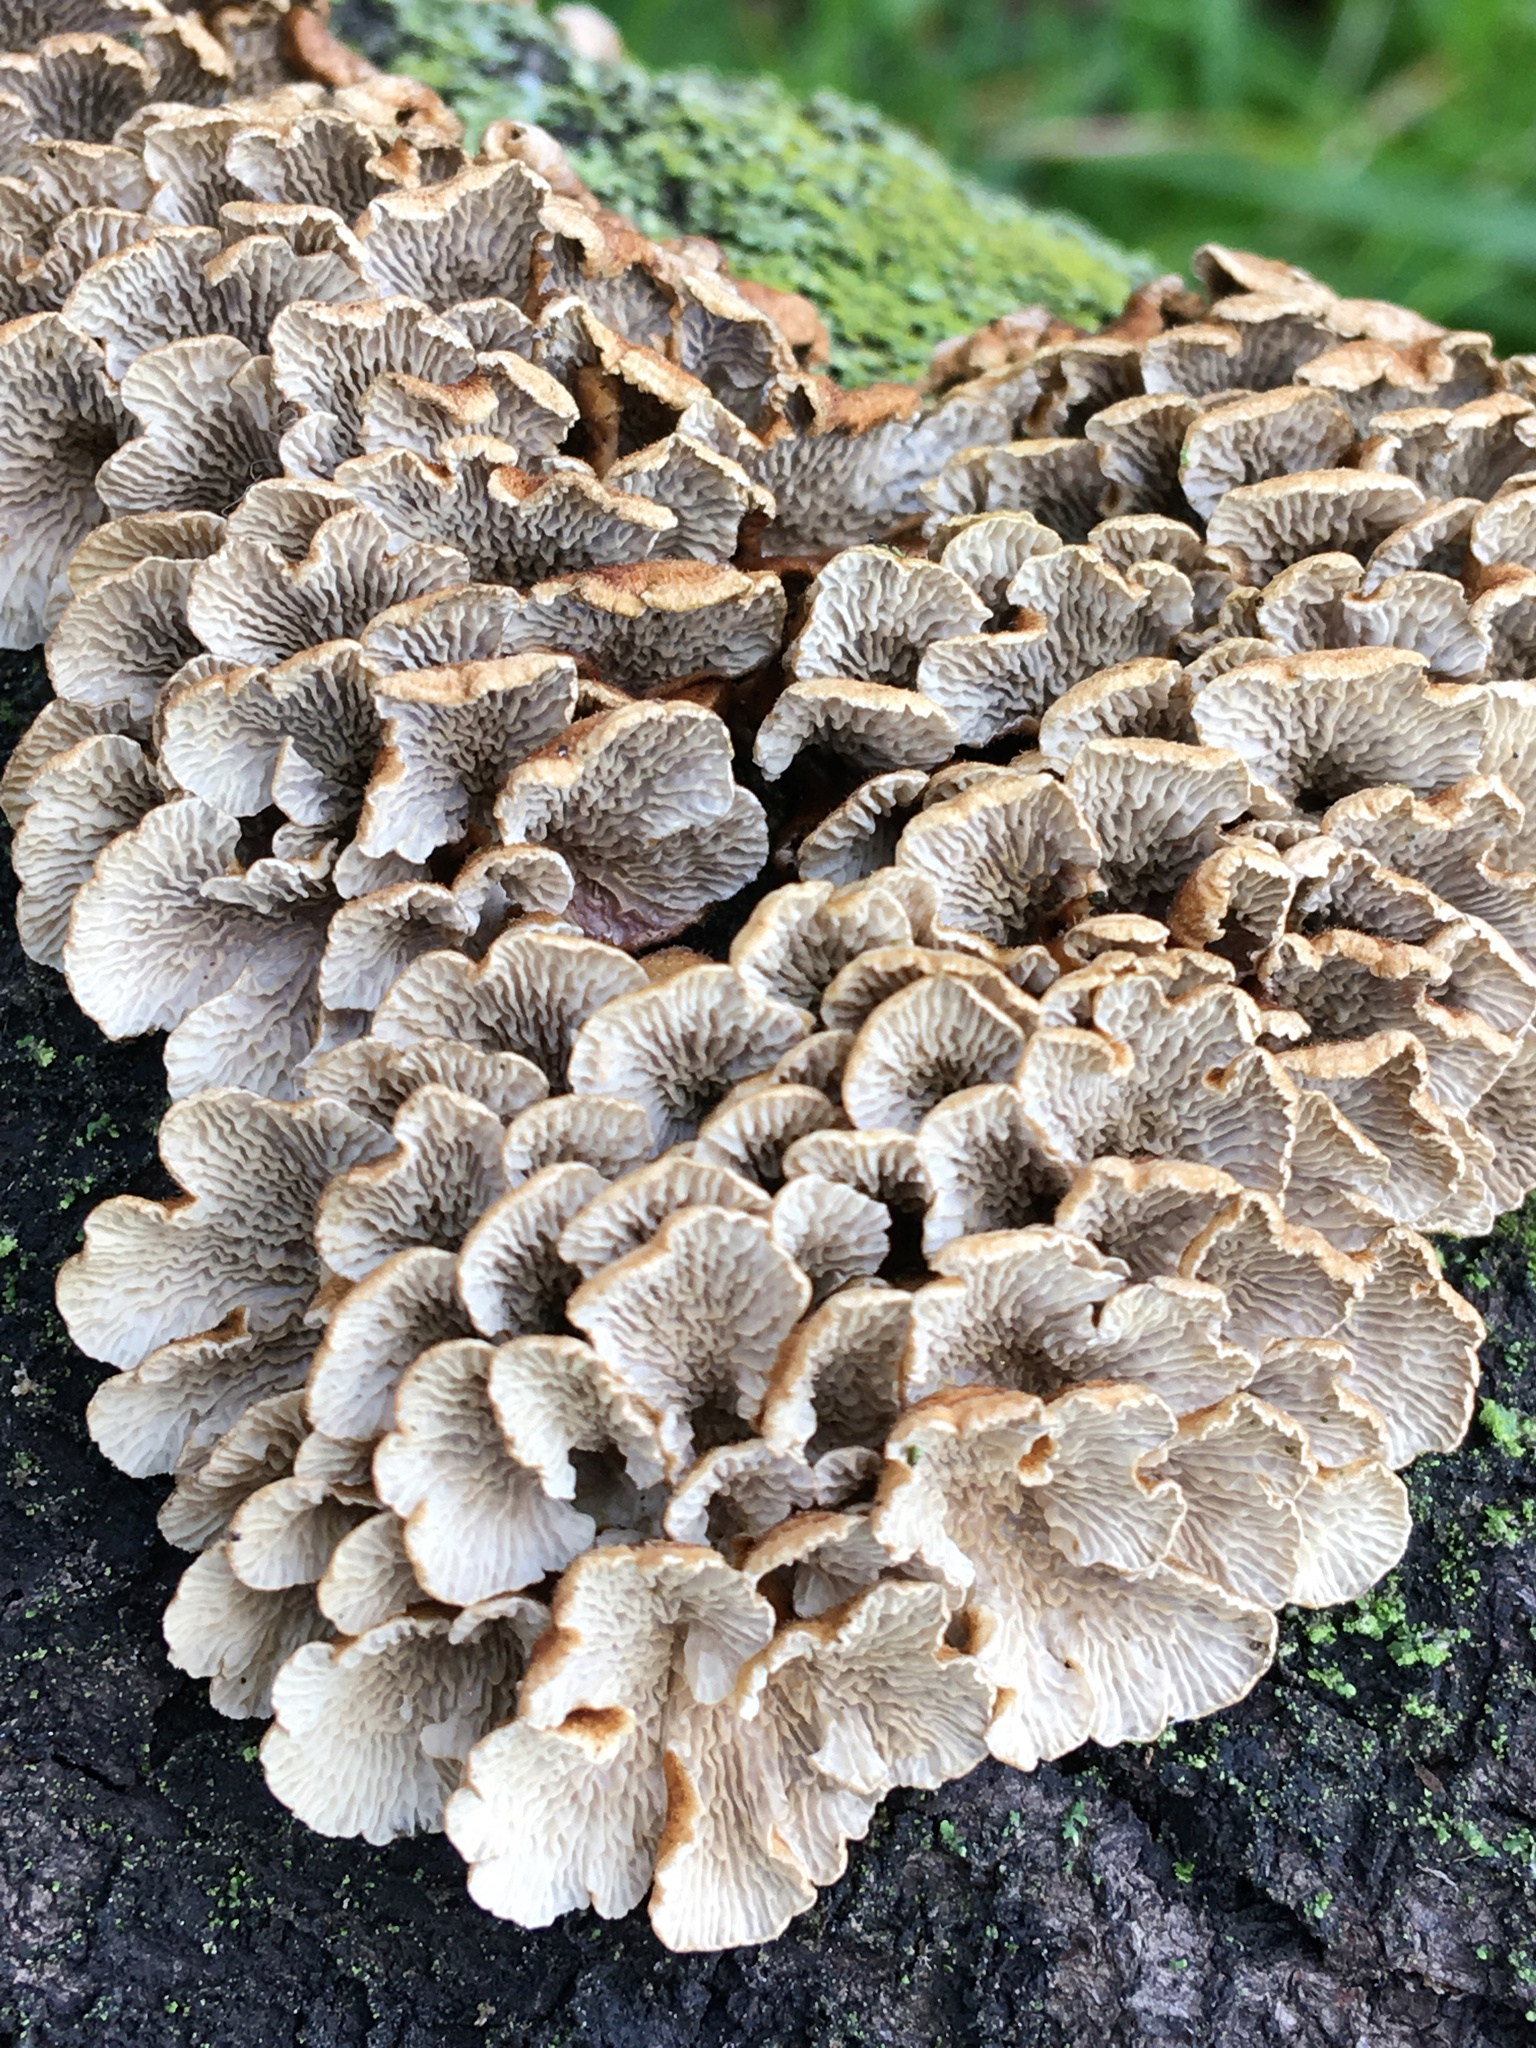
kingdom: Fungi
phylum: Basidiomycota
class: Agaricomycetes
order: Amylocorticiales
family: Amylocorticiaceae
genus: Plicaturopsis
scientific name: Plicaturopsis crispa
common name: Crimped gill
